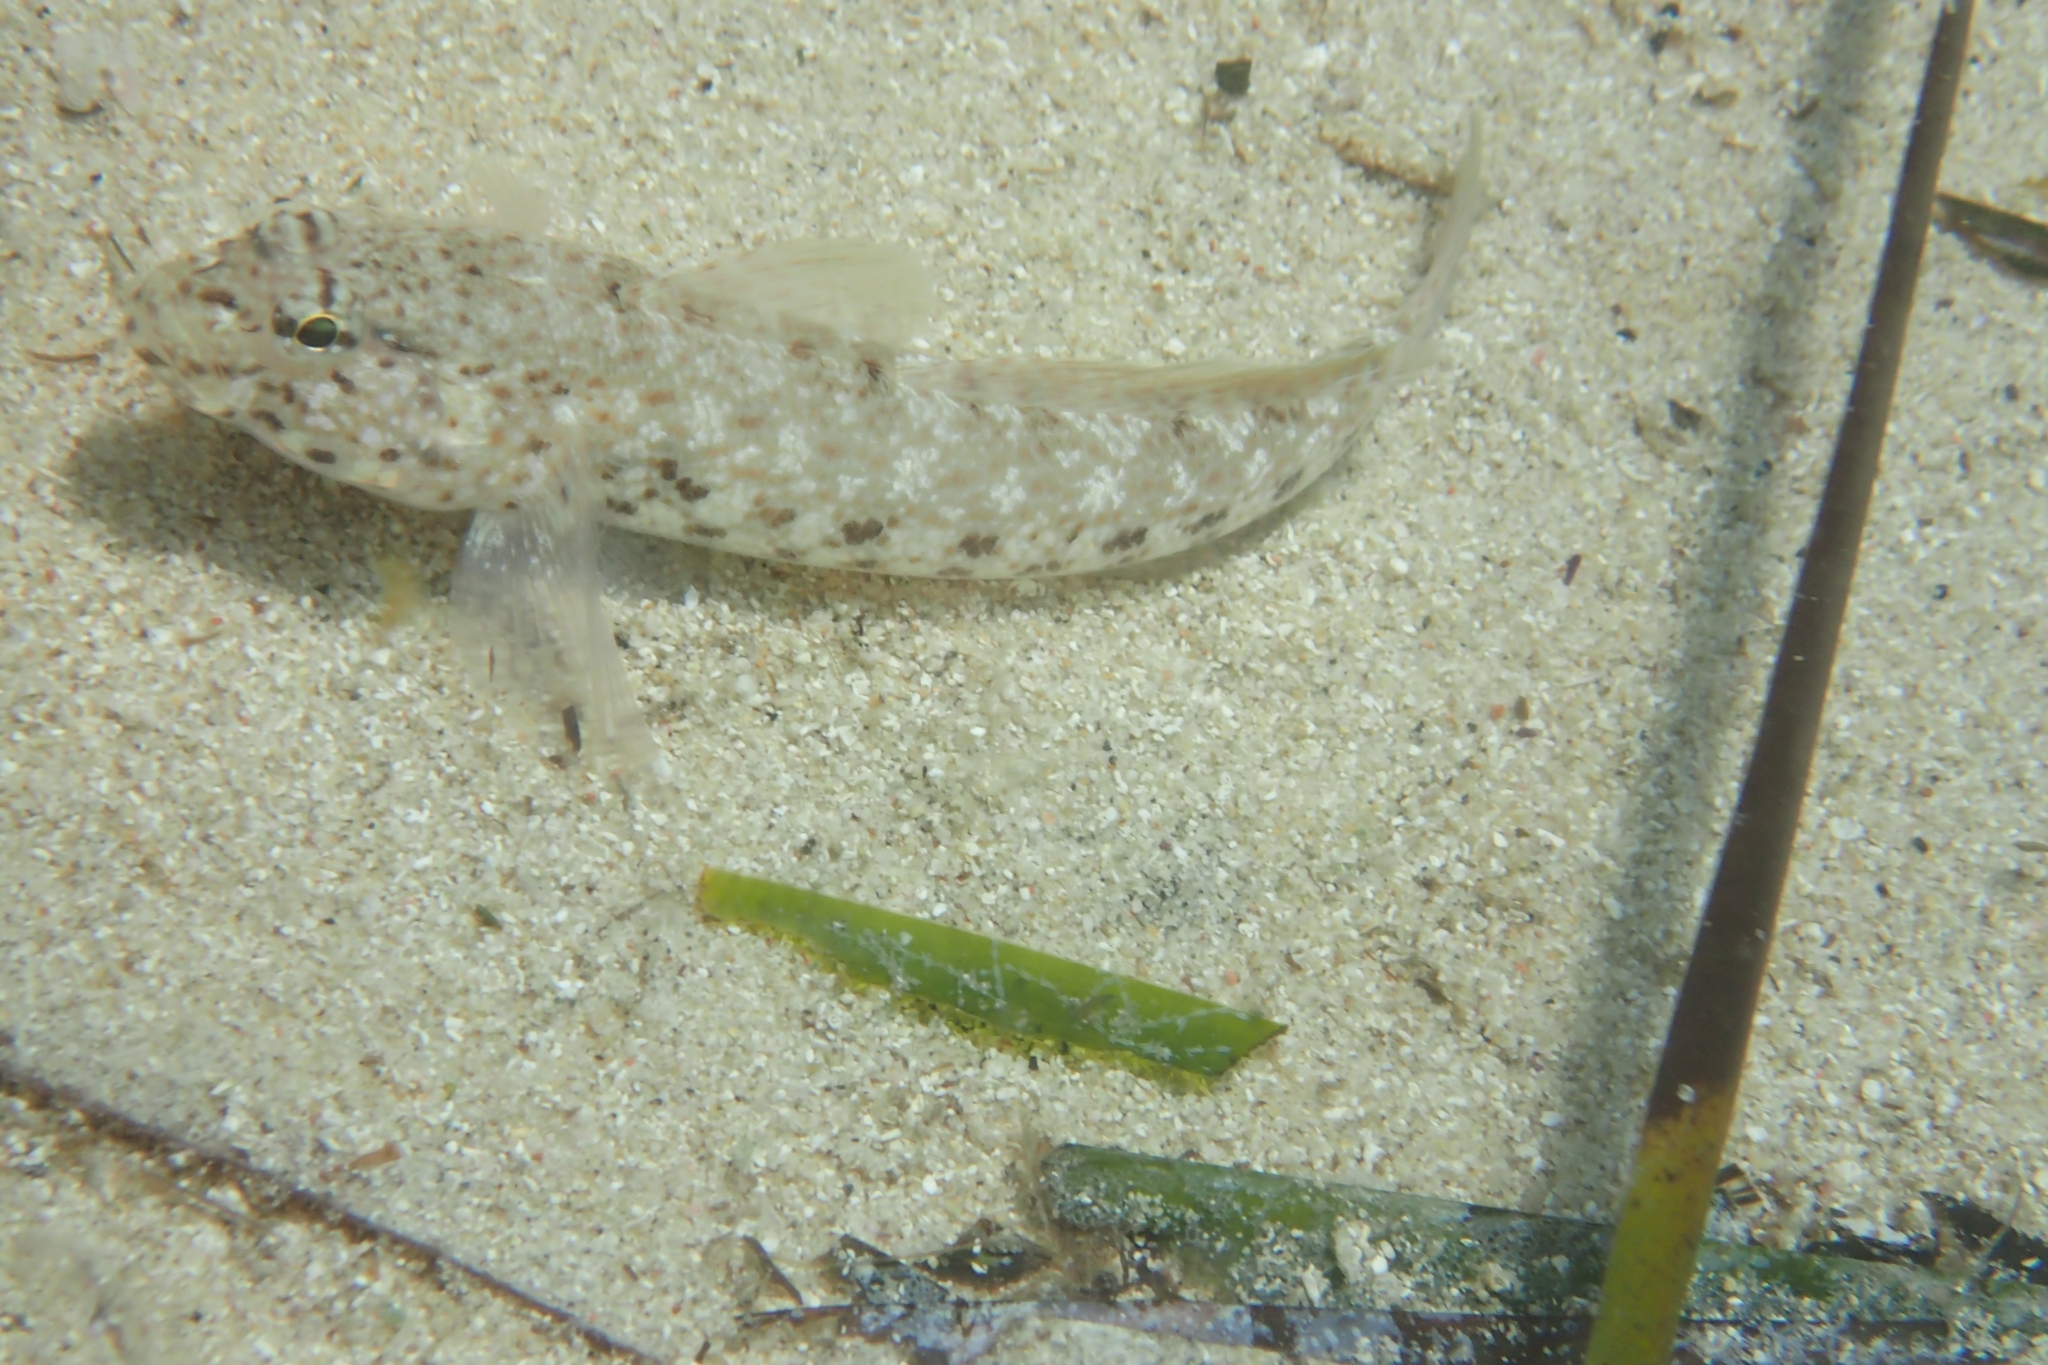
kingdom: Animalia
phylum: Chordata
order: Perciformes
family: Gobiidae
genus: Gobius
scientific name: Gobius incognitus
